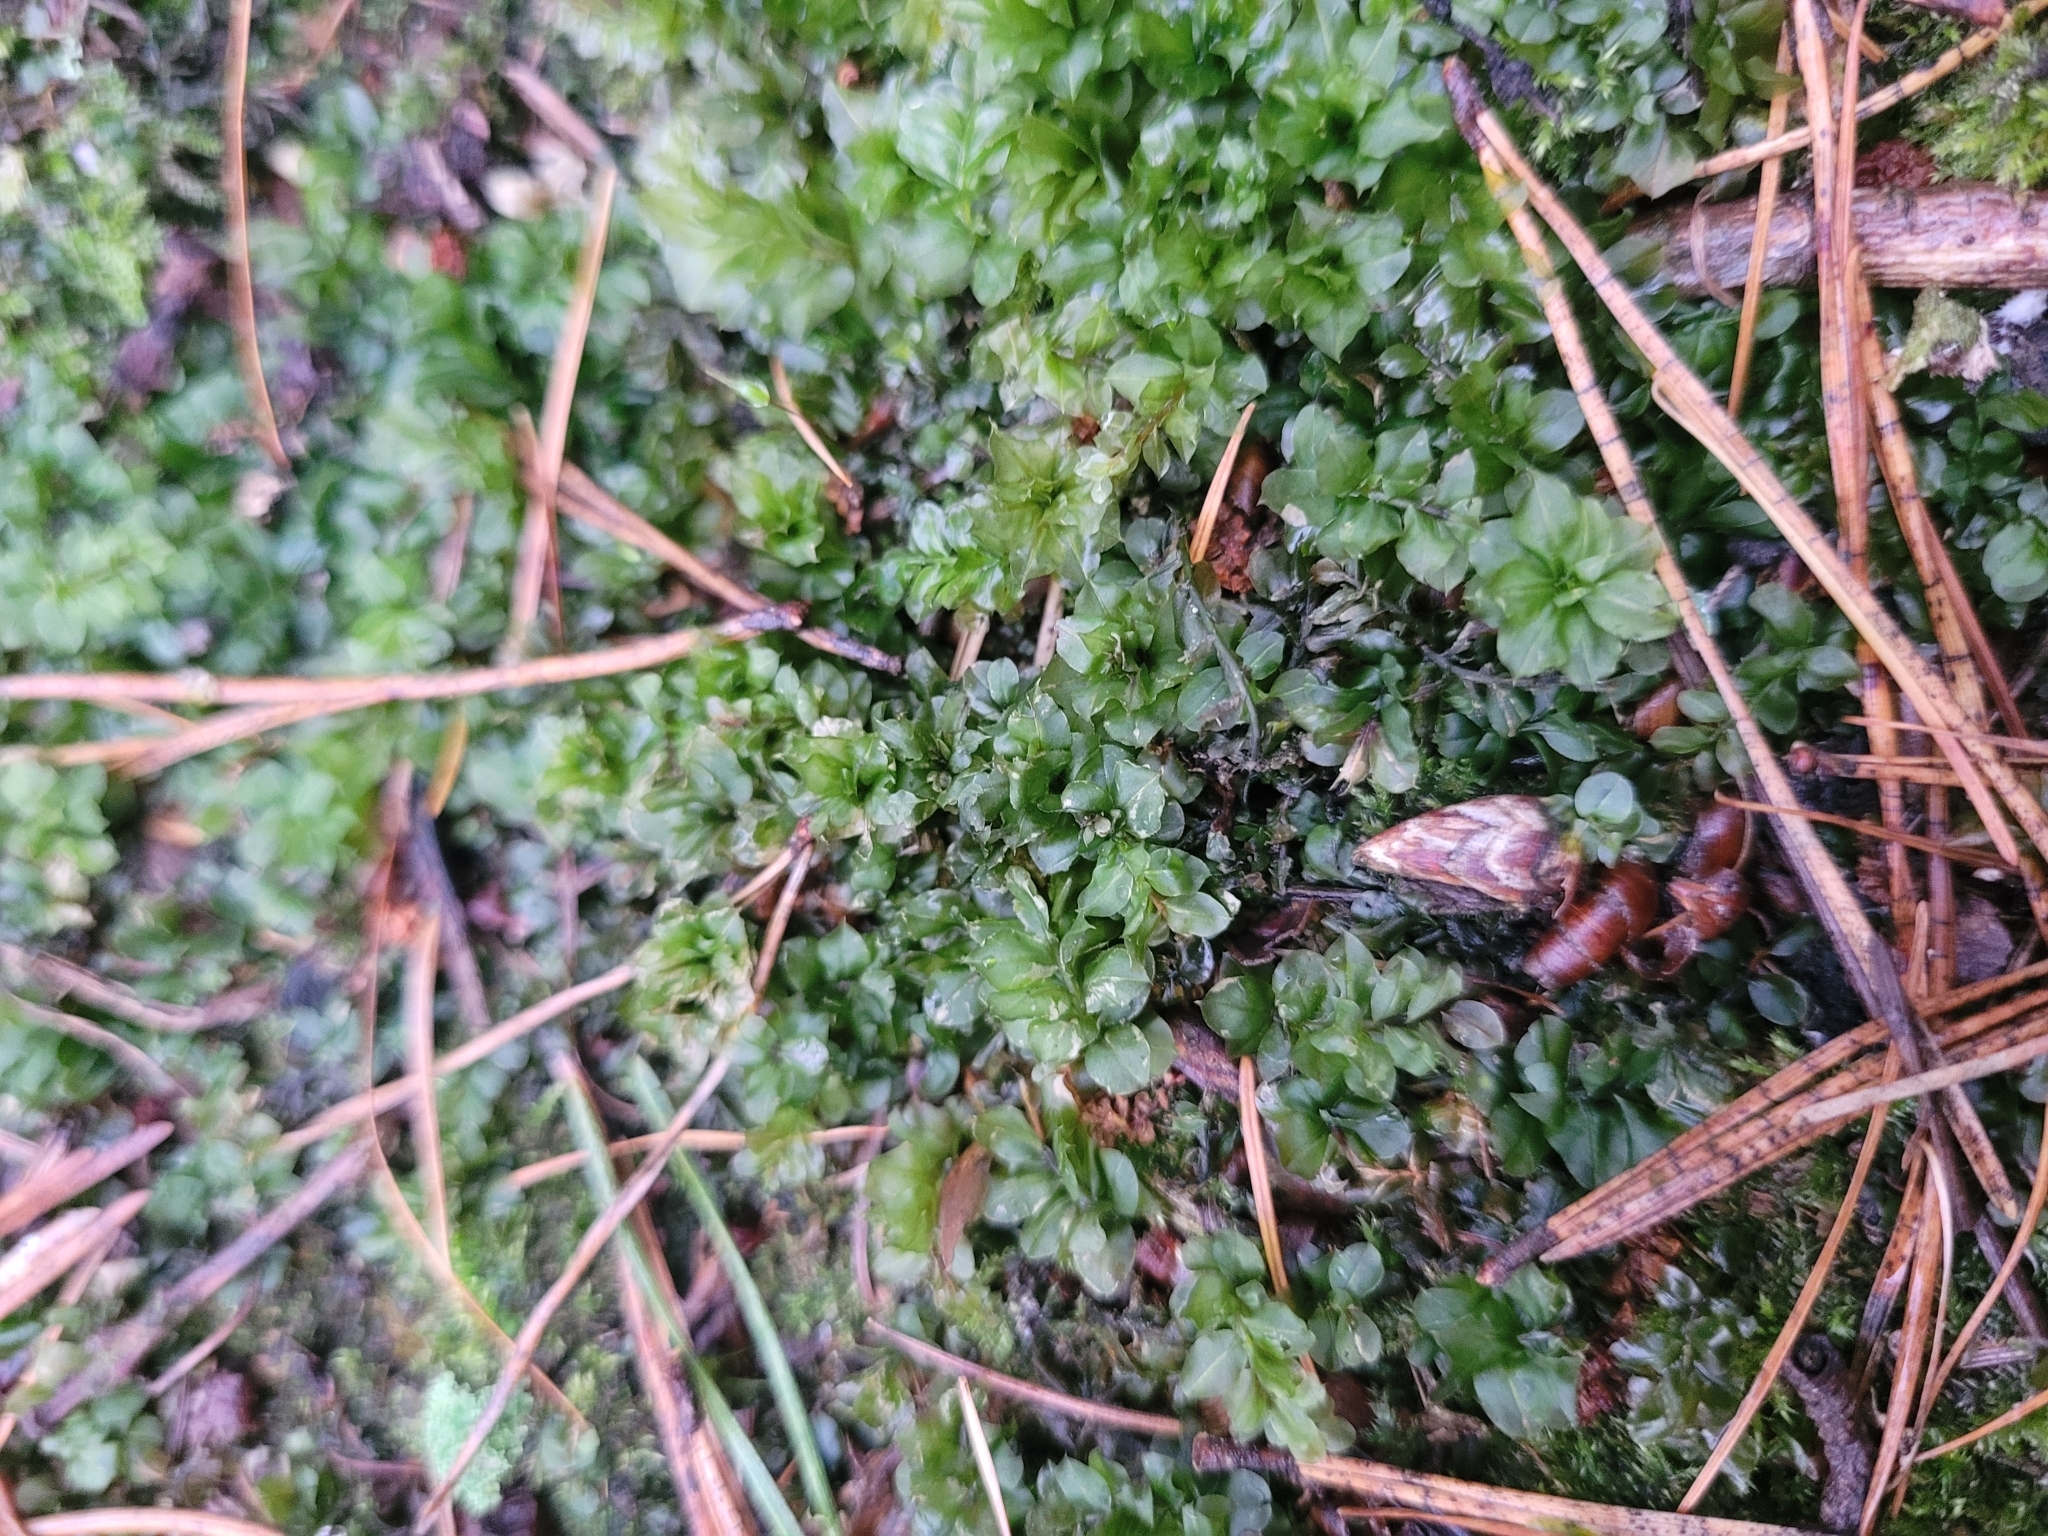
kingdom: Plantae
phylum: Bryophyta
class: Bryopsida
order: Bryales
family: Mniaceae
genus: Plagiomnium
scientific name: Plagiomnium affine
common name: Many-fruited thyme-moss
